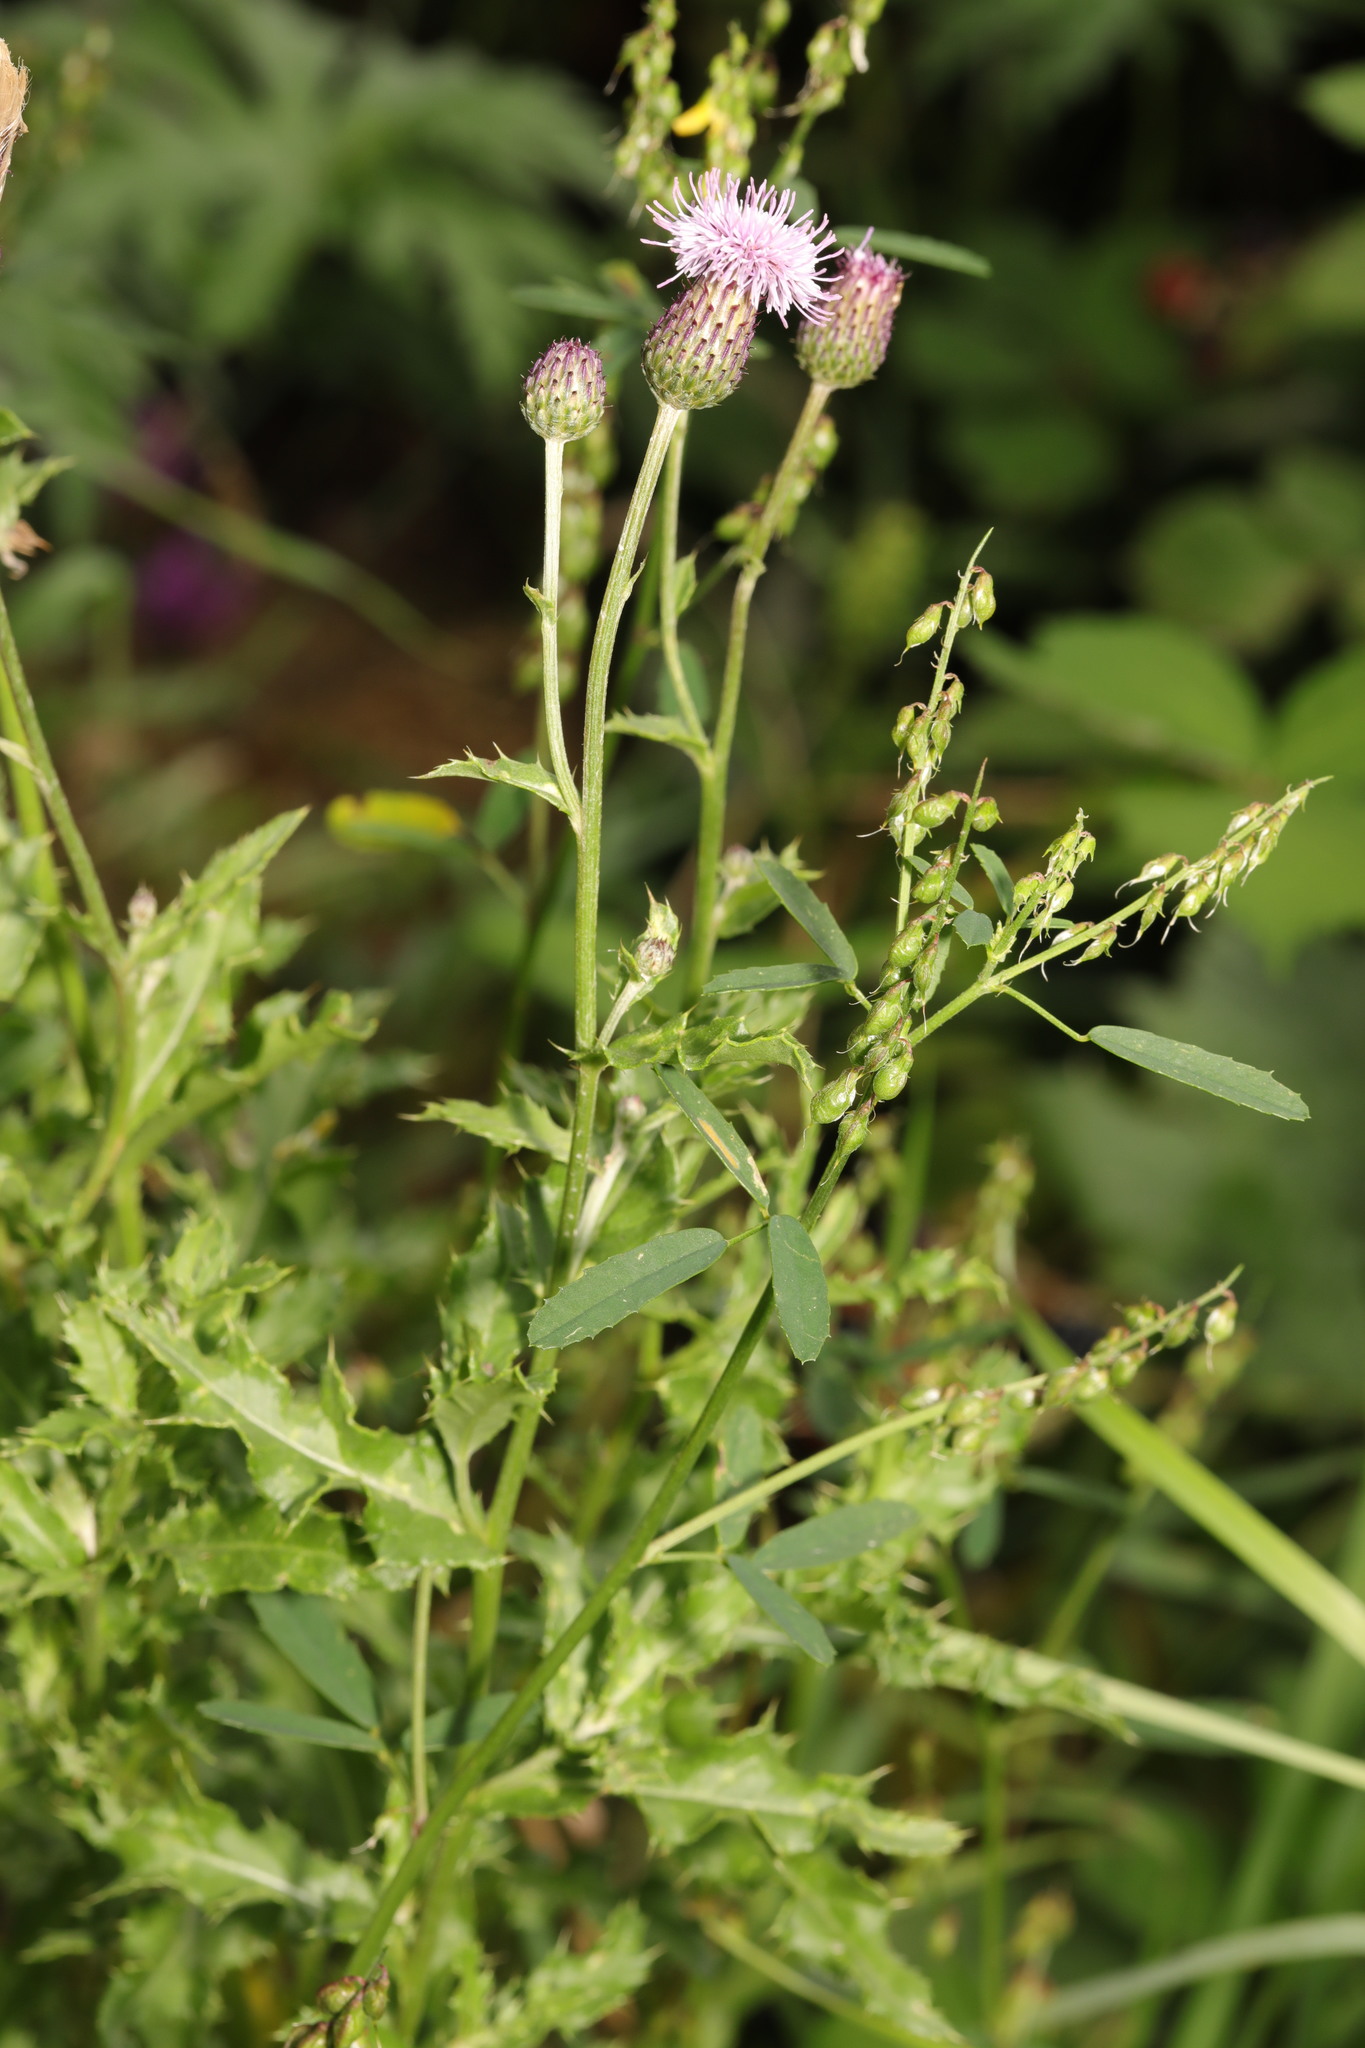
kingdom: Plantae
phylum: Tracheophyta
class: Magnoliopsida
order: Asterales
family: Asteraceae
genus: Cirsium
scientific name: Cirsium arvense
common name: Creeping thistle
